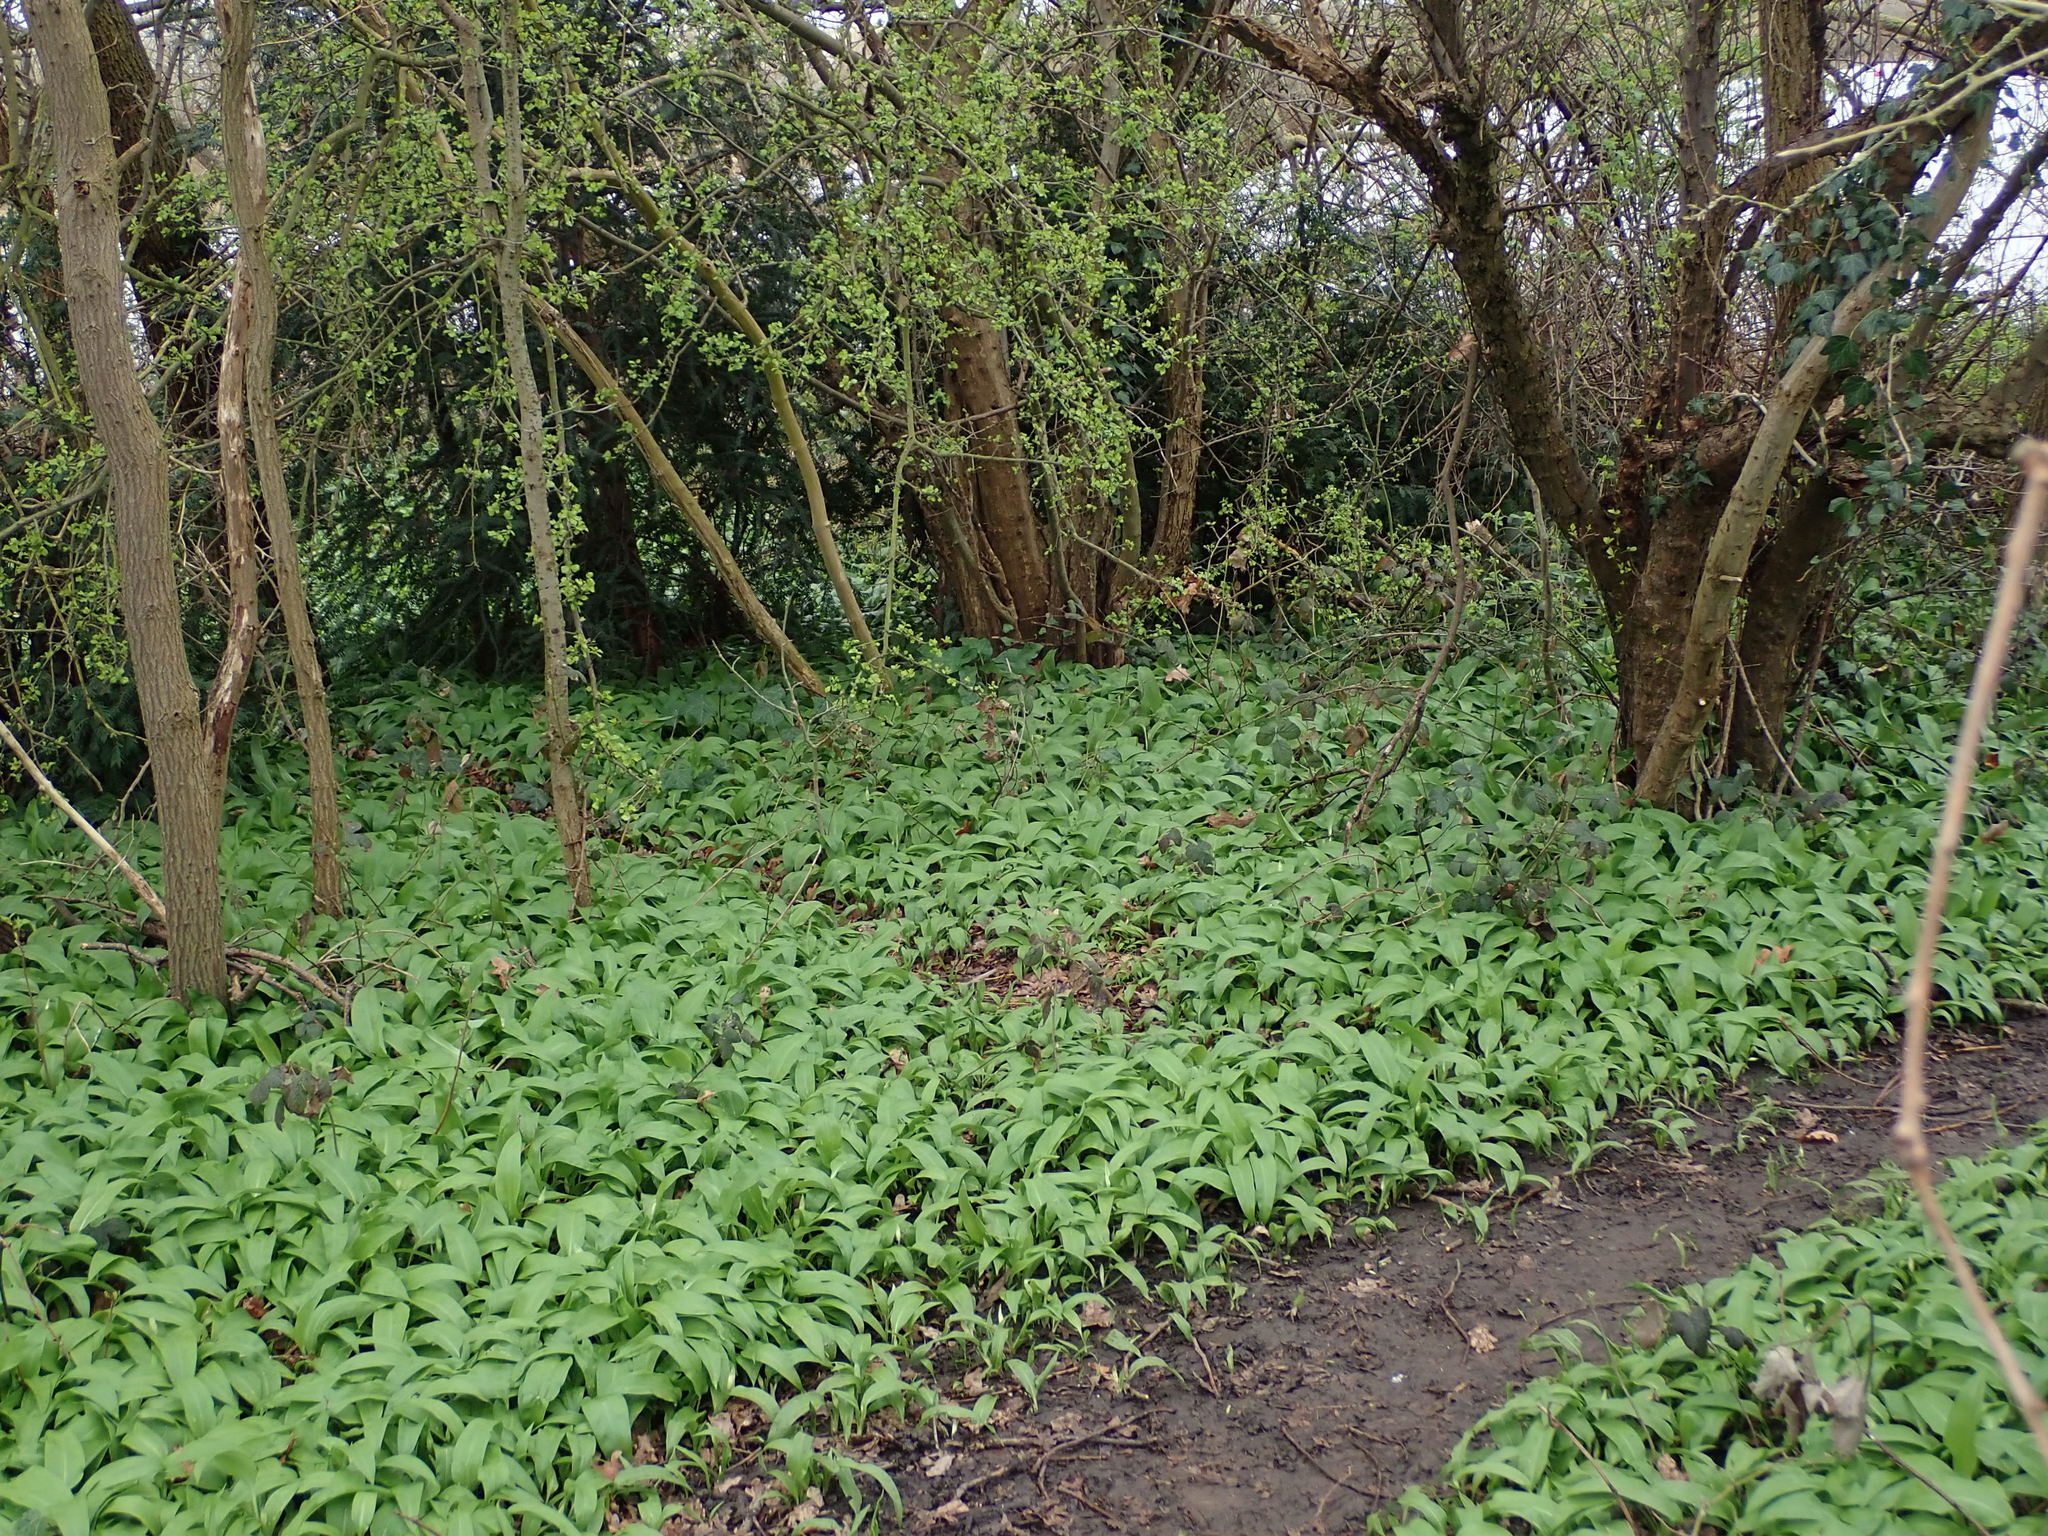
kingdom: Plantae
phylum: Tracheophyta
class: Liliopsida
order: Asparagales
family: Amaryllidaceae
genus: Allium
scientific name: Allium ursinum
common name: Ramsons
